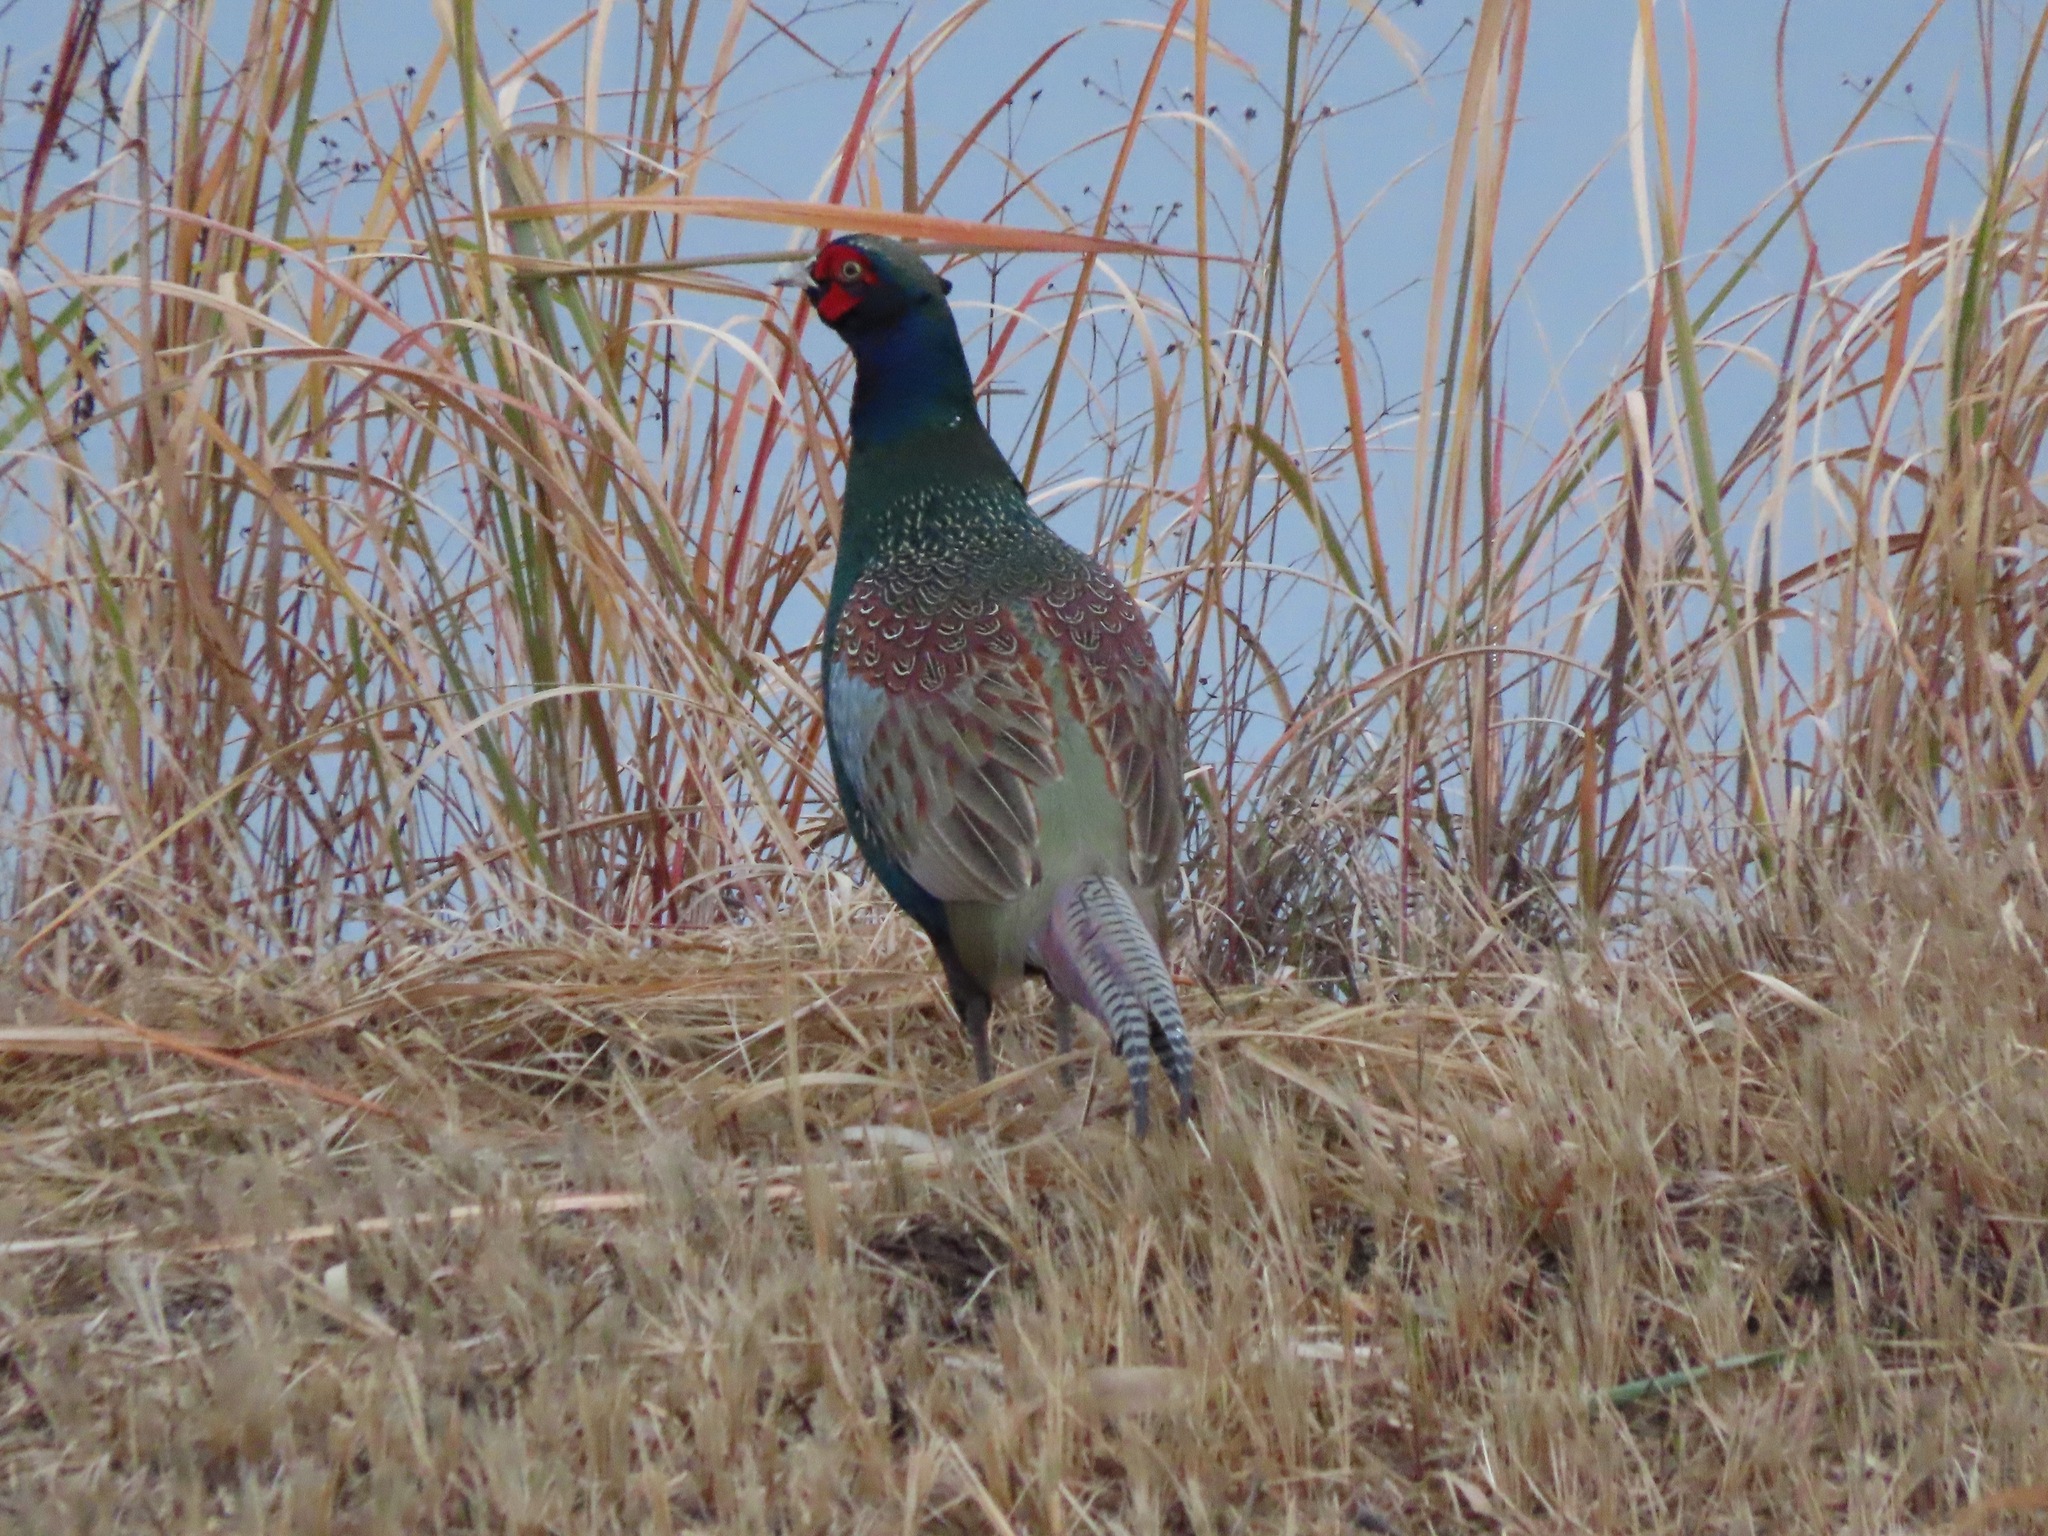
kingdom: Animalia
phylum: Chordata
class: Aves
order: Galliformes
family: Phasianidae
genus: Phasianus
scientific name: Phasianus versicolor
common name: Green pheasant
